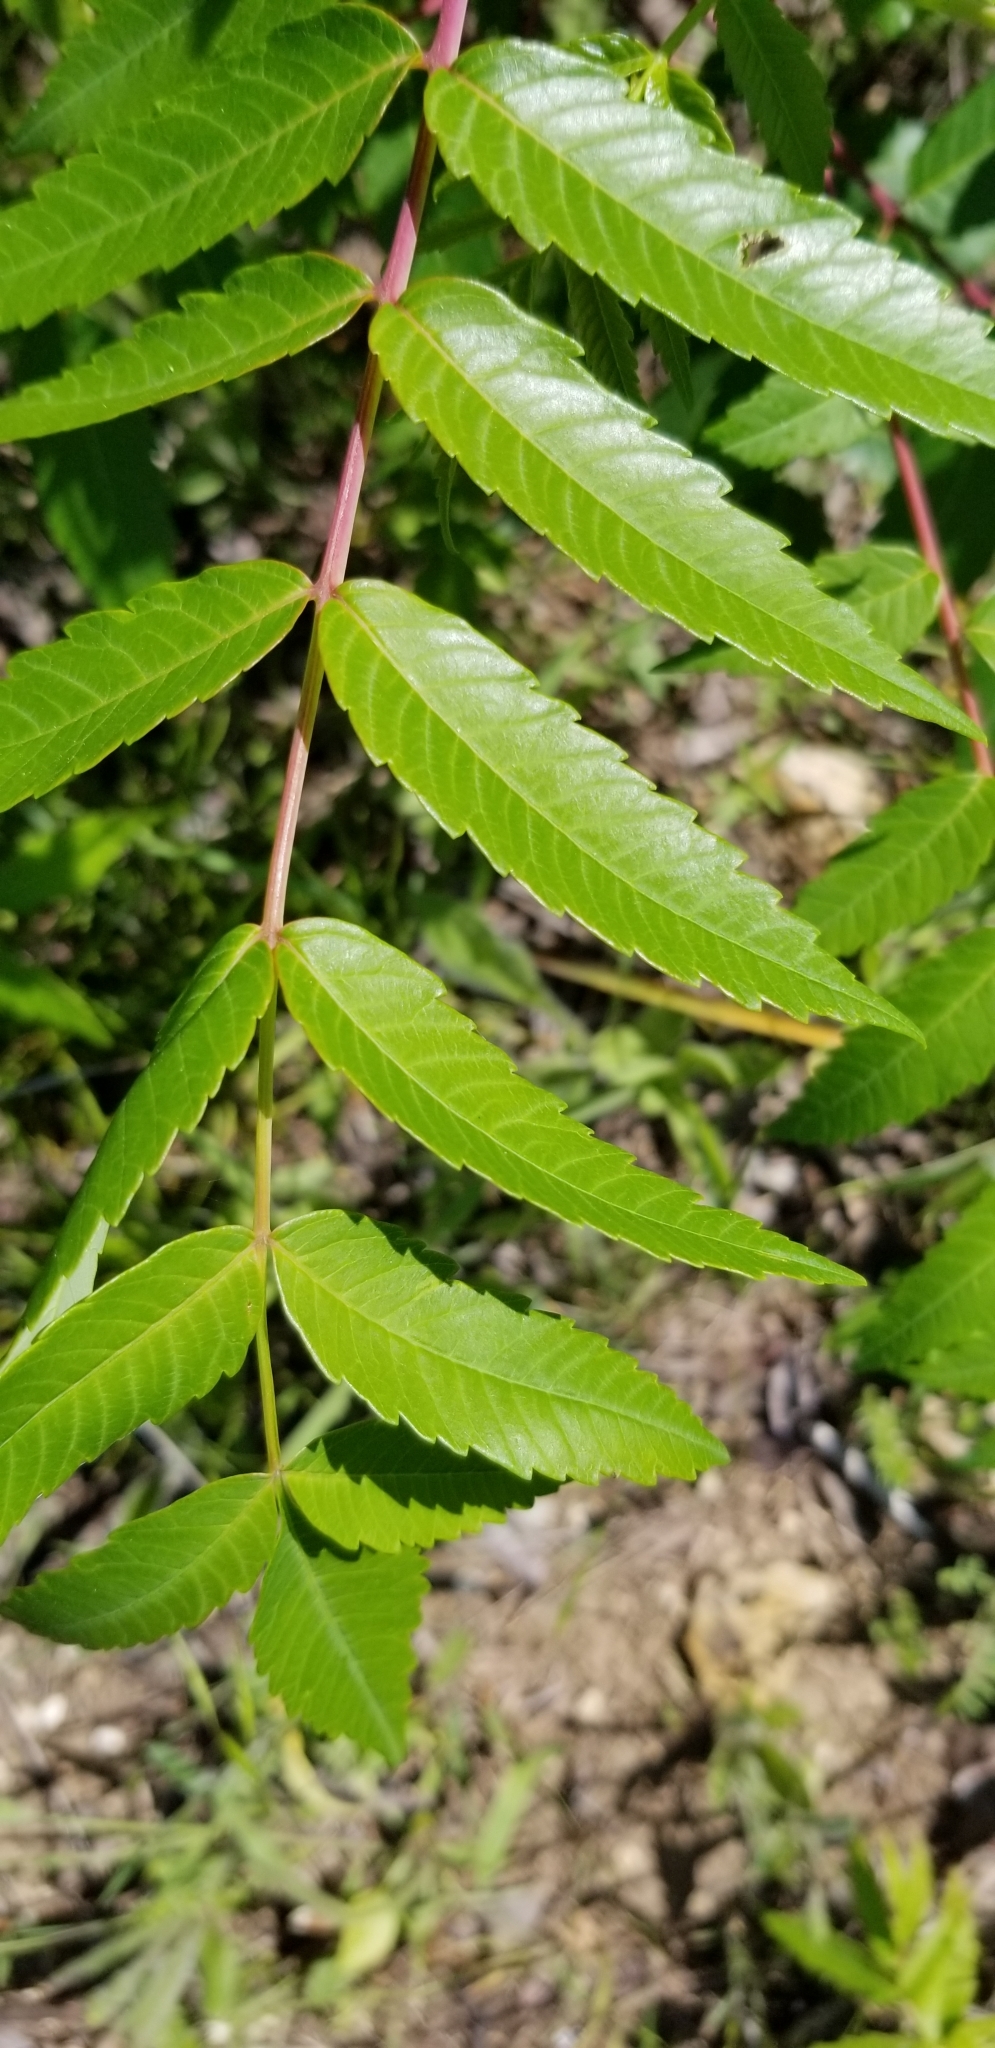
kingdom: Plantae
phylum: Tracheophyta
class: Magnoliopsida
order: Sapindales
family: Anacardiaceae
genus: Rhus
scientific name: Rhus glabra
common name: Scarlet sumac
